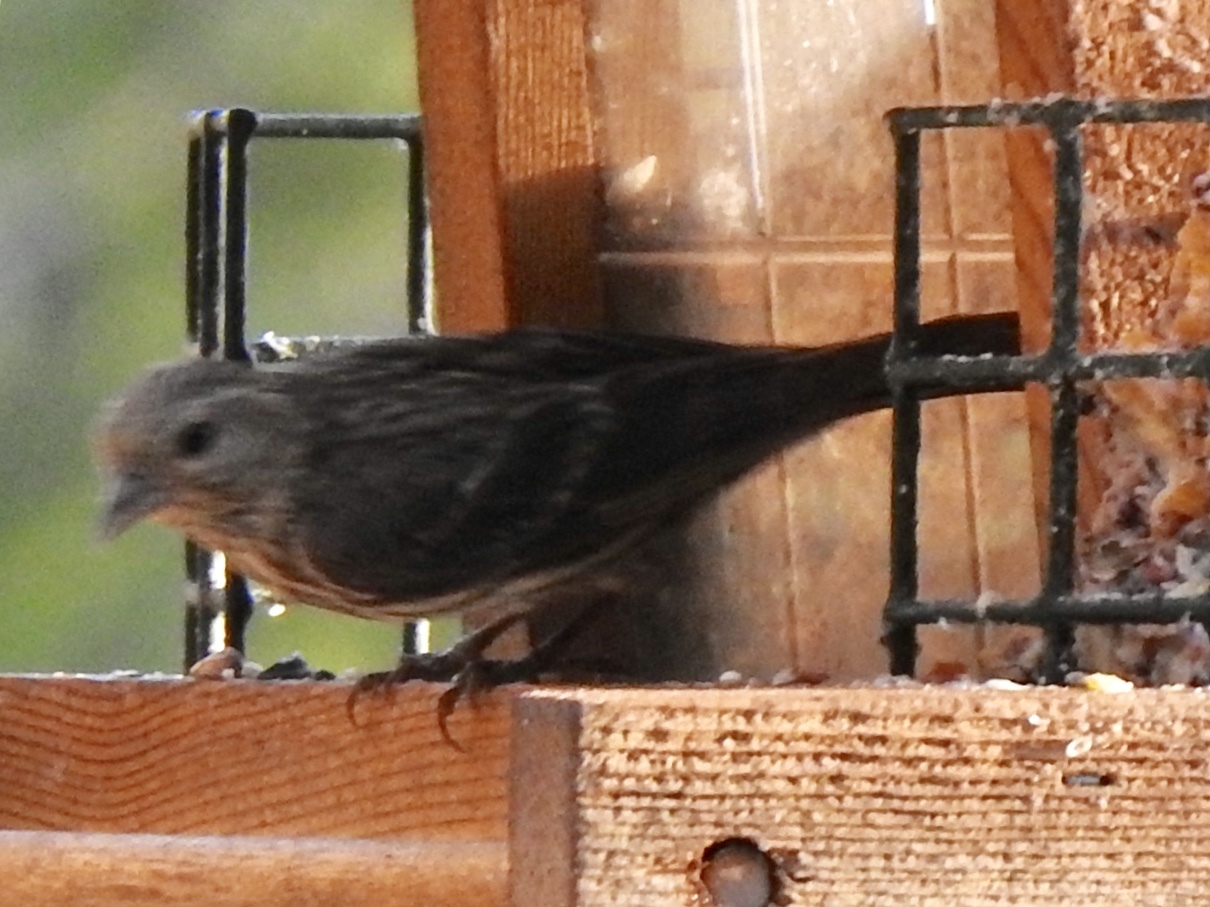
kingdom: Animalia
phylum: Chordata
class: Aves
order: Passeriformes
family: Fringillidae
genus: Spinus
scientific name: Spinus pinus
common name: Pine siskin
